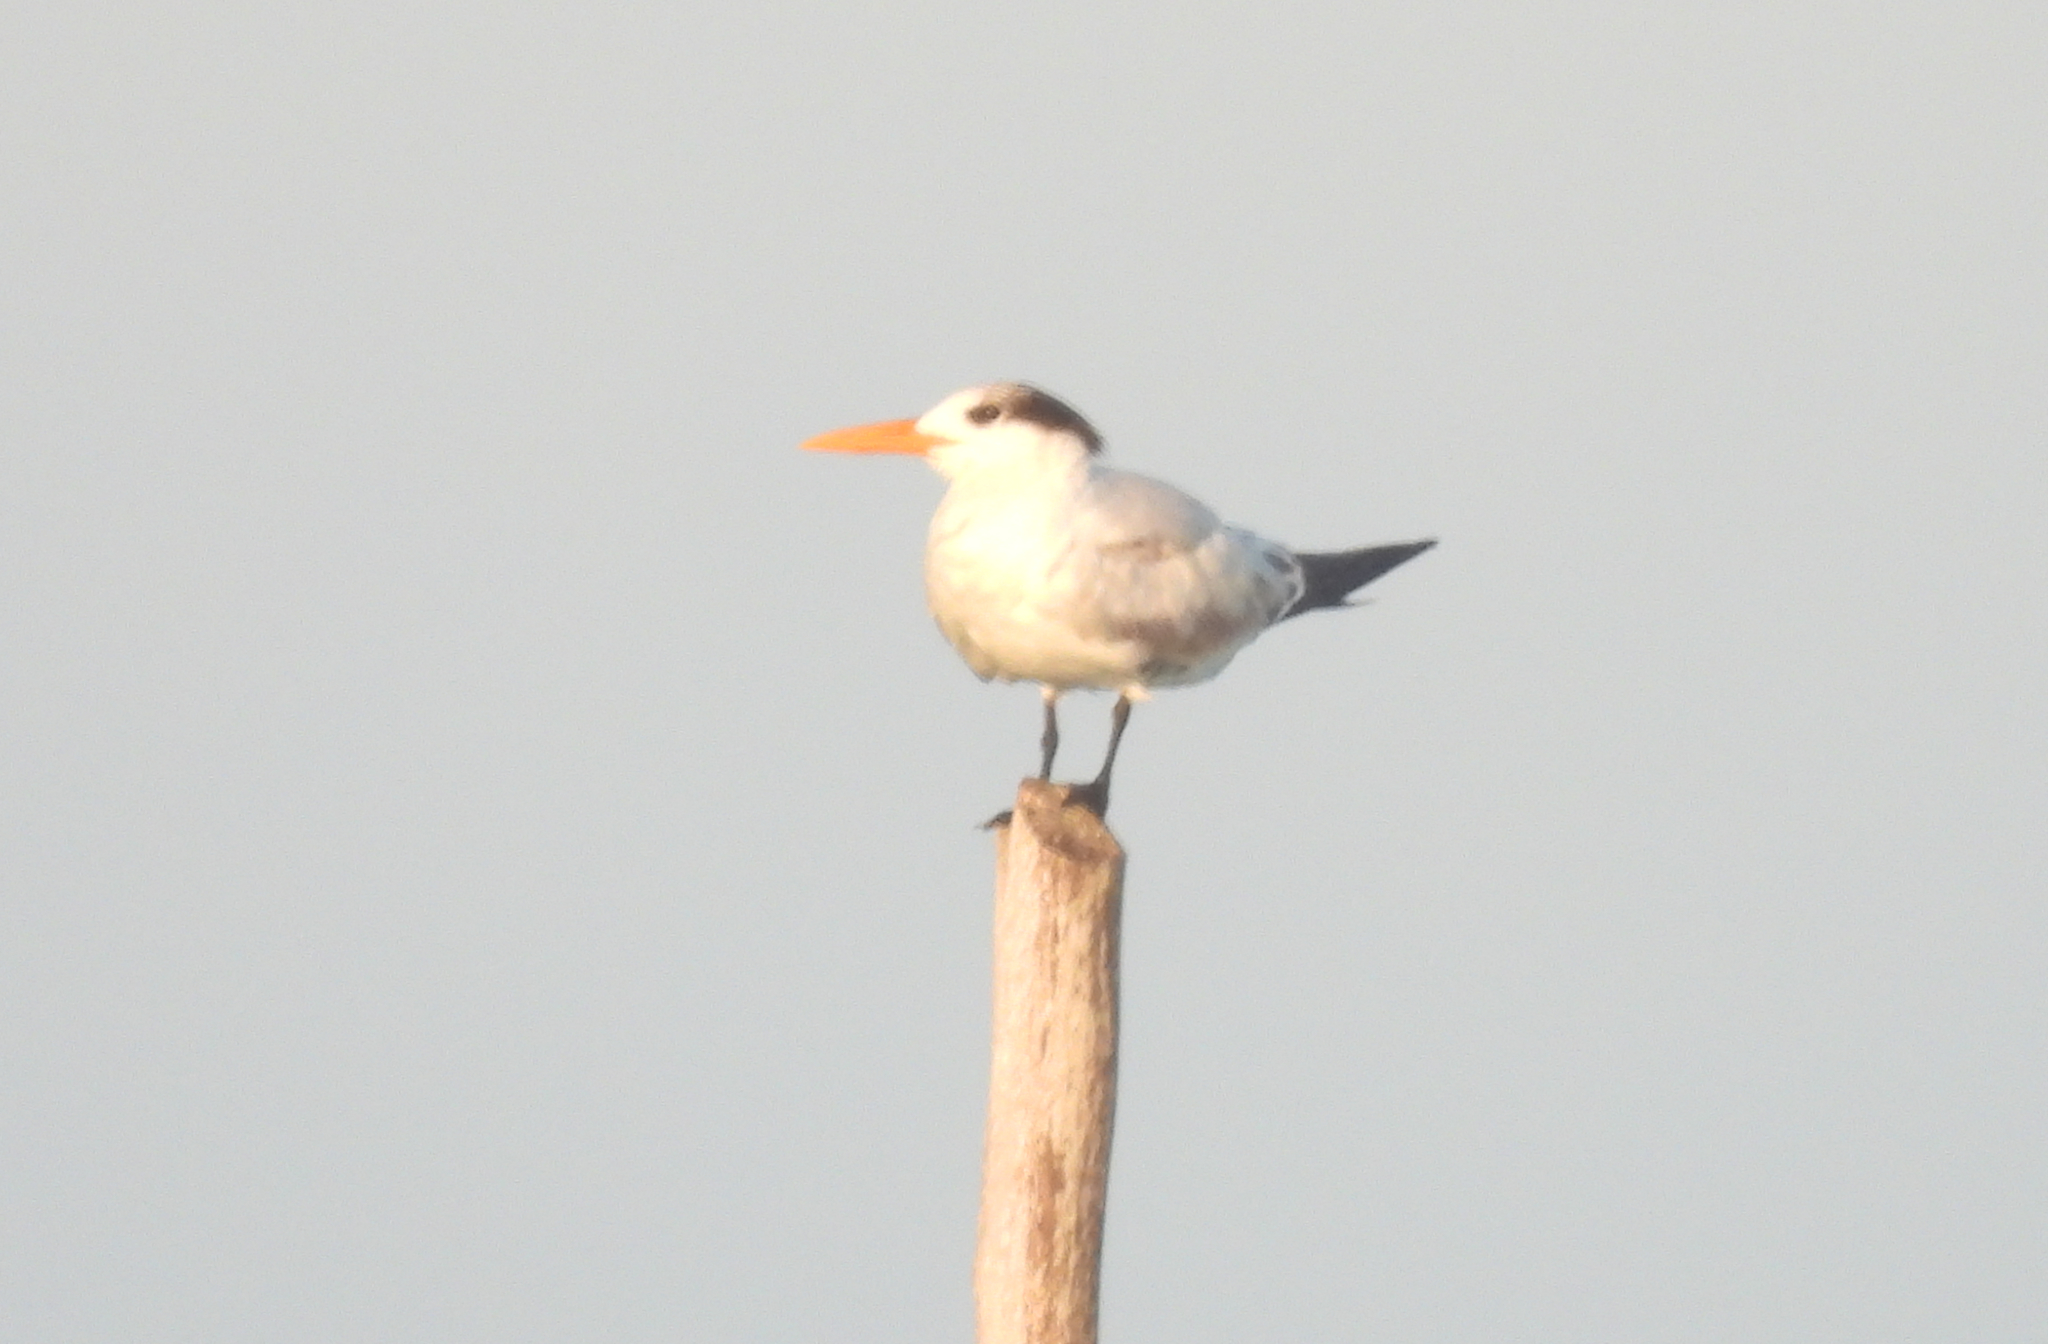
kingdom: Animalia
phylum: Chordata
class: Aves
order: Charadriiformes
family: Laridae
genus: Thalasseus
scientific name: Thalasseus maximus
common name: Royal tern
